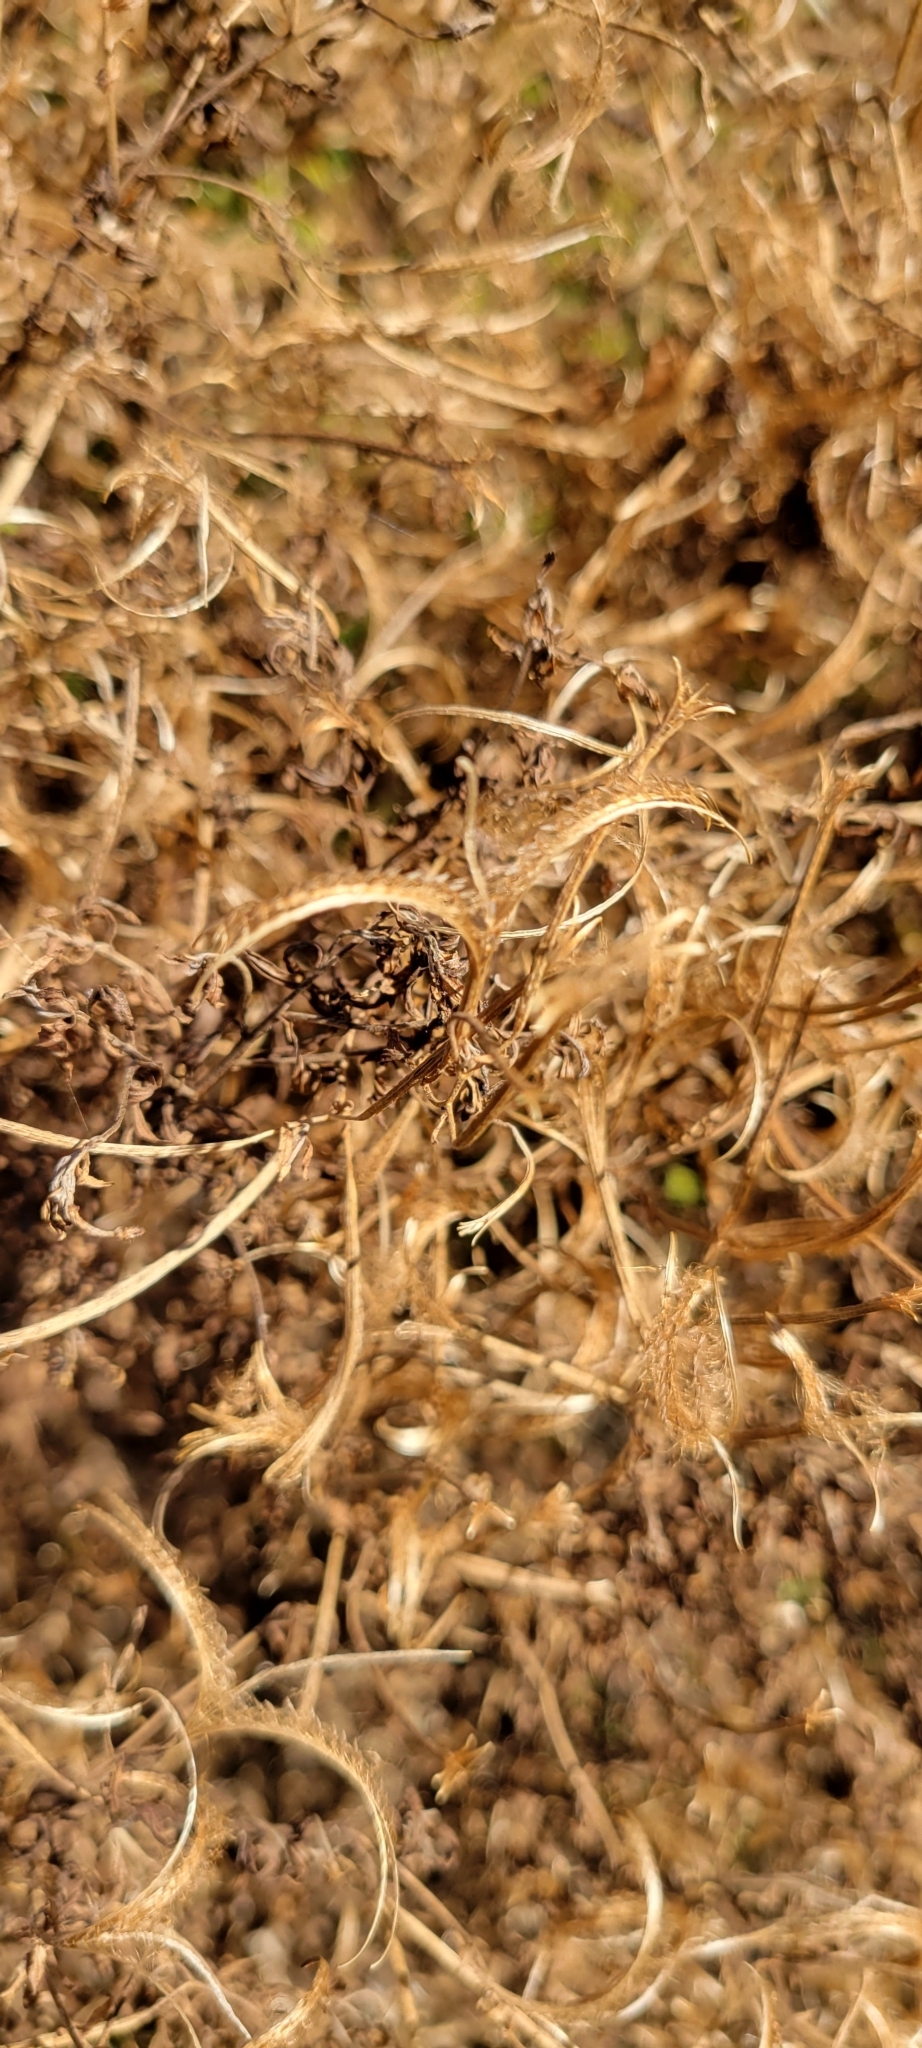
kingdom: Plantae
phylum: Tracheophyta
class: Magnoliopsida
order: Myrtales
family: Onagraceae
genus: Epilobium
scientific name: Epilobium coloratum
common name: Bronze willowherb
